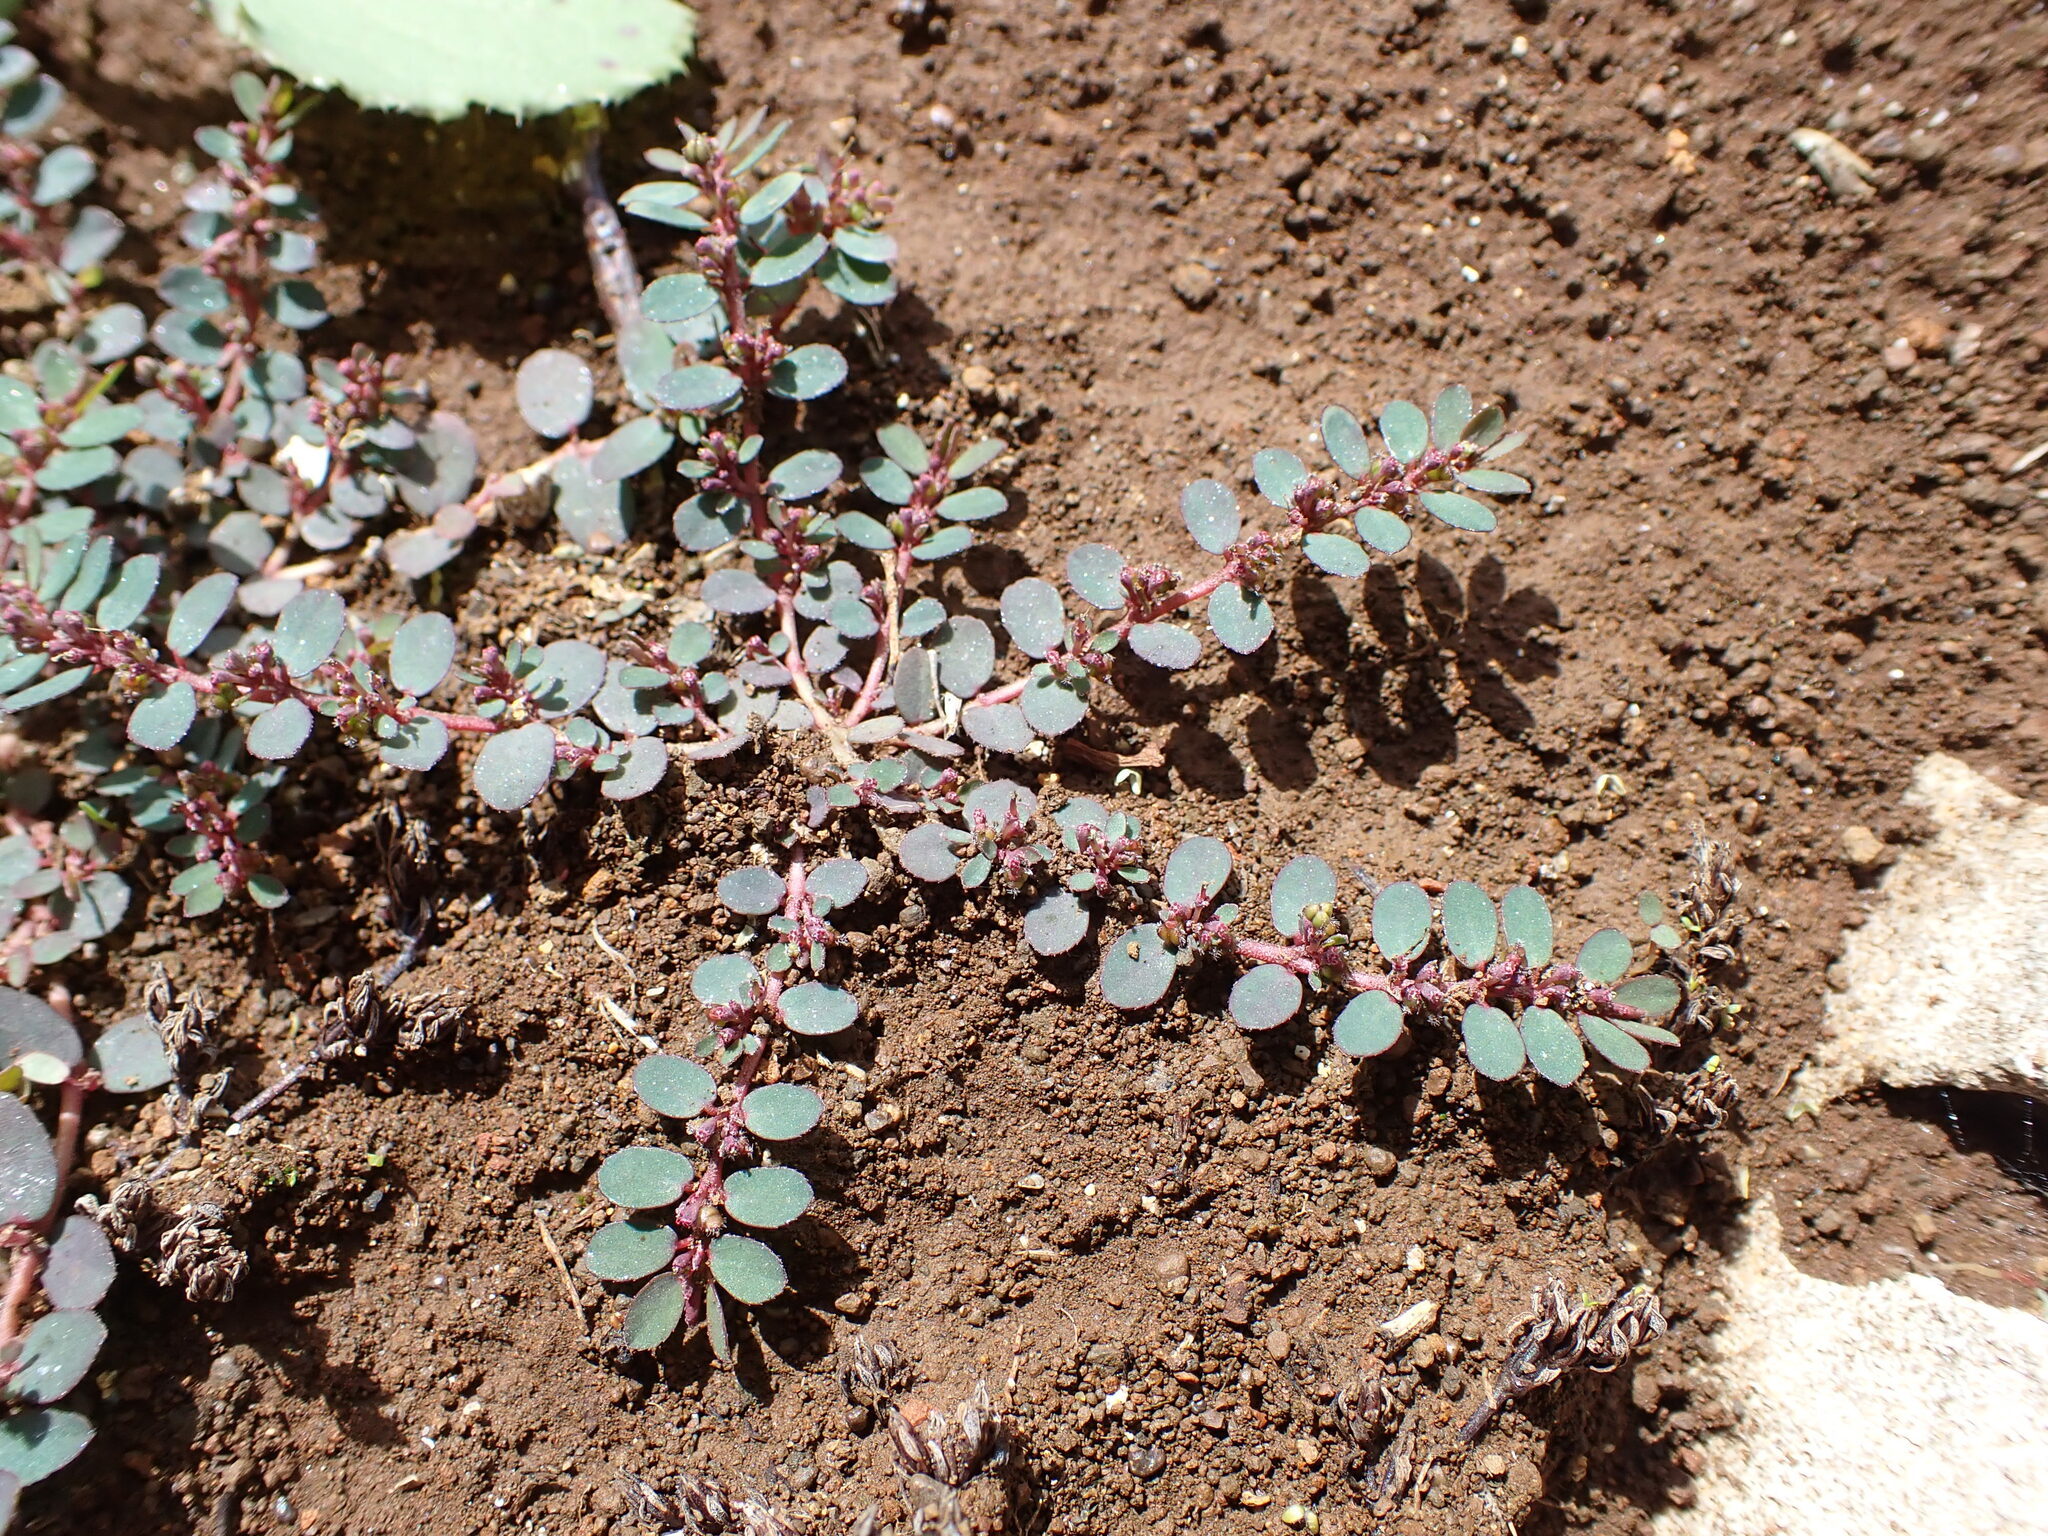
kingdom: Plantae
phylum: Tracheophyta
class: Magnoliopsida
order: Malpighiales
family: Euphorbiaceae
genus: Euphorbia
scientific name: Euphorbia prostrata
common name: Prostrate sandmat
